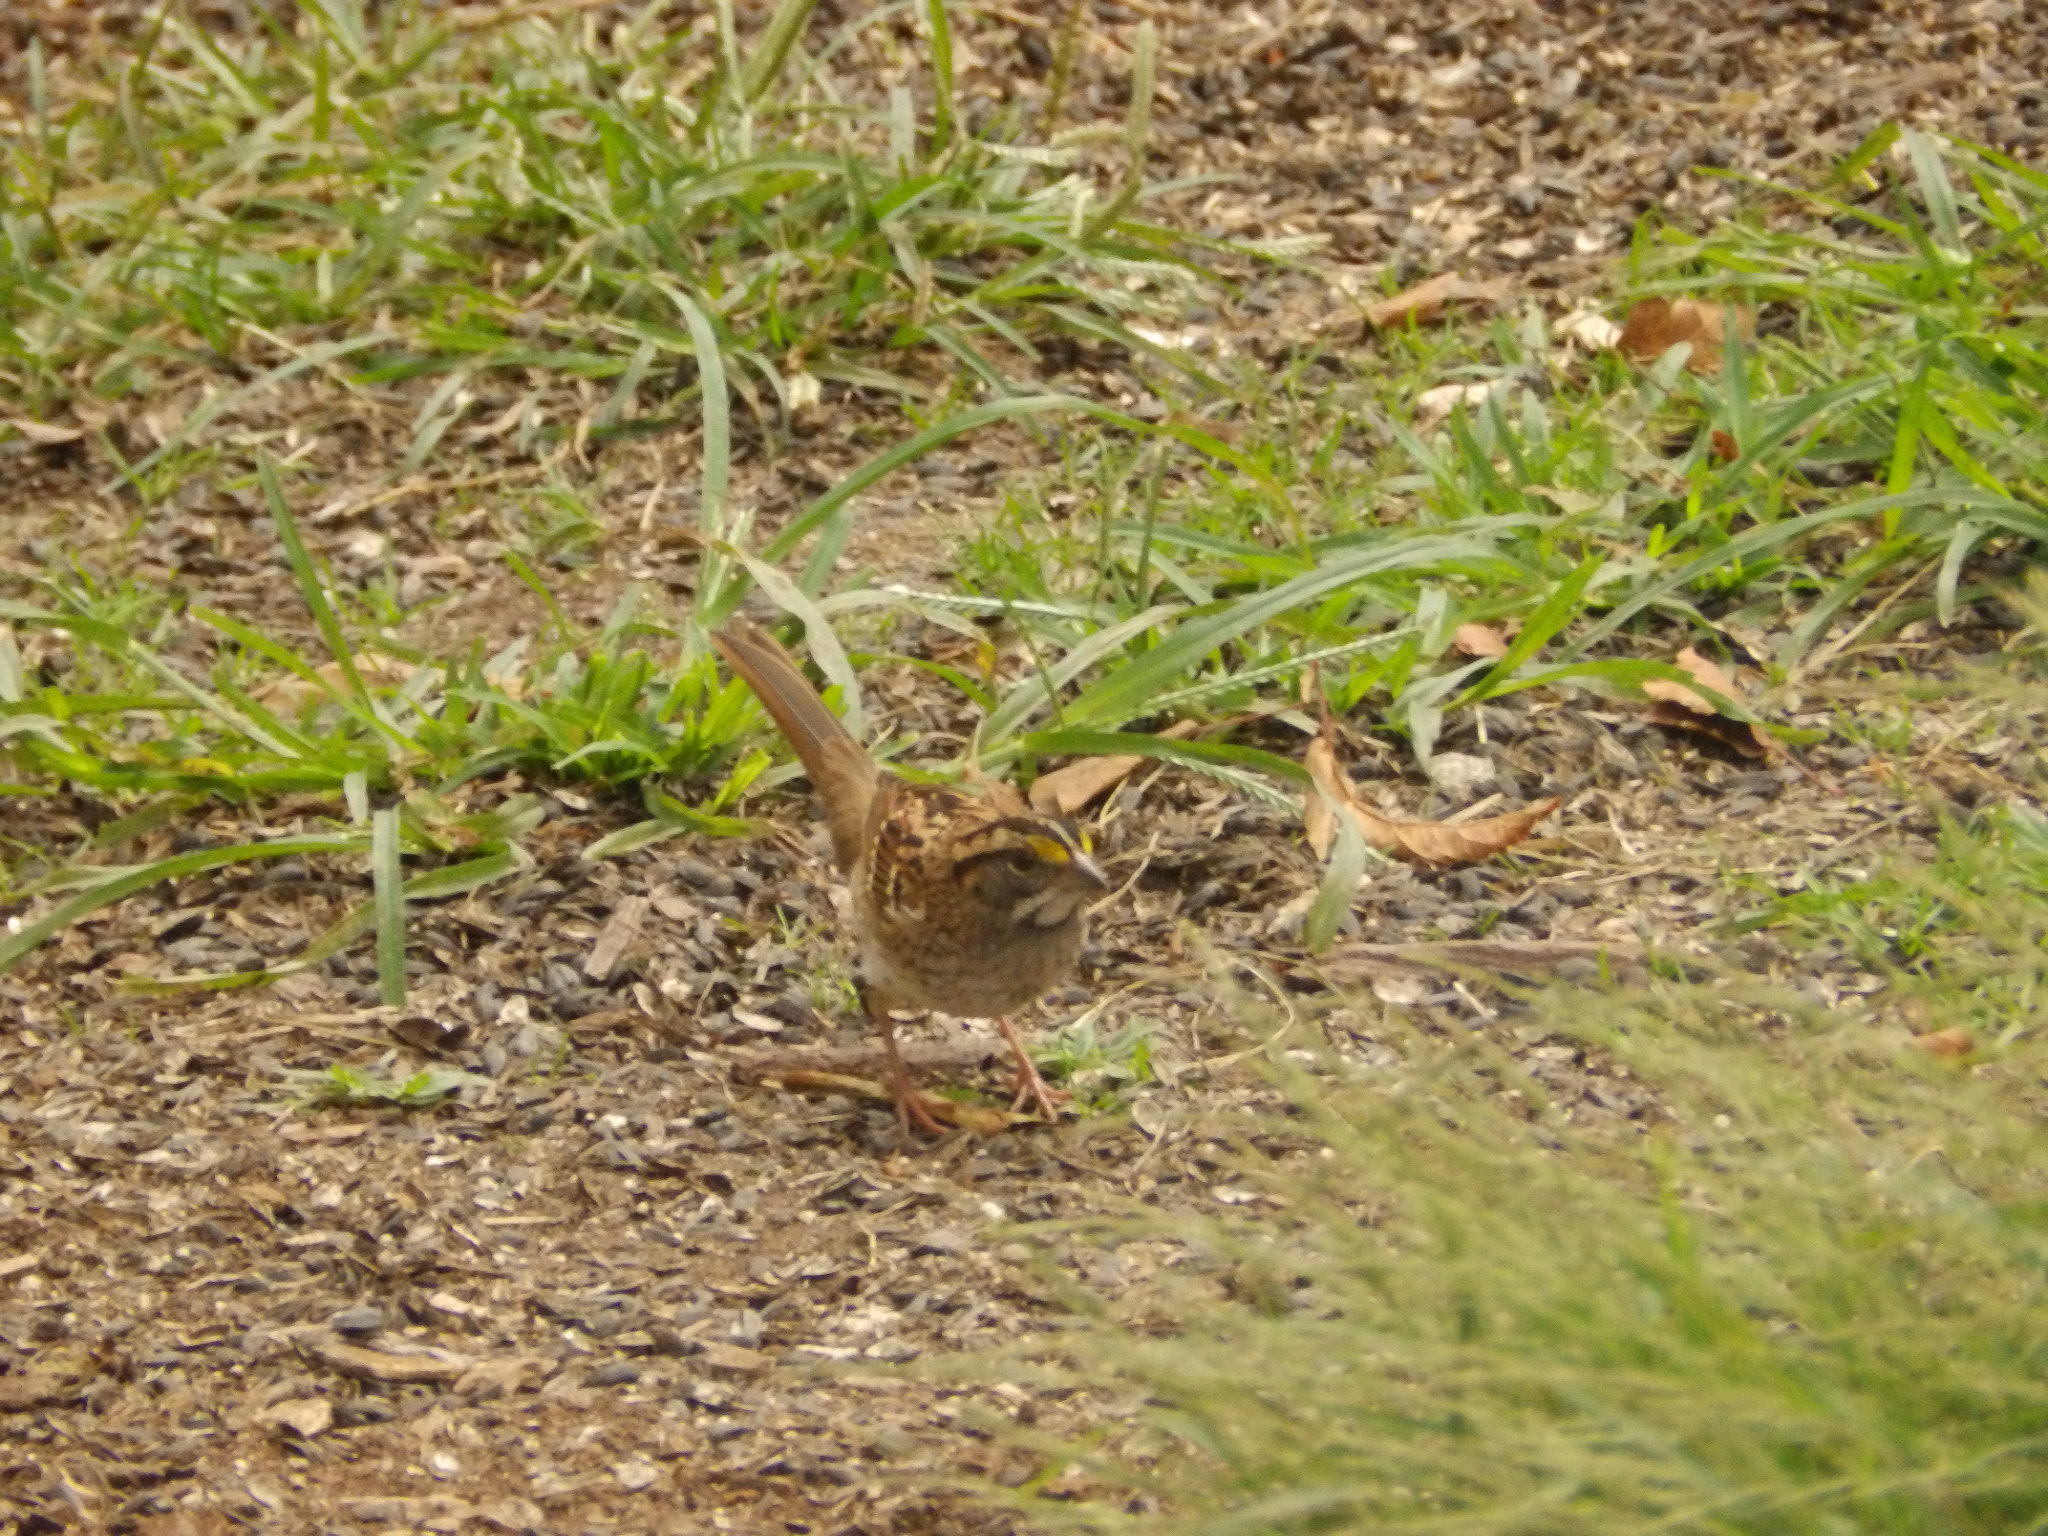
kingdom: Animalia
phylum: Chordata
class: Aves
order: Passeriformes
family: Passerellidae
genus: Zonotrichia
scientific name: Zonotrichia albicollis
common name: White-throated sparrow
